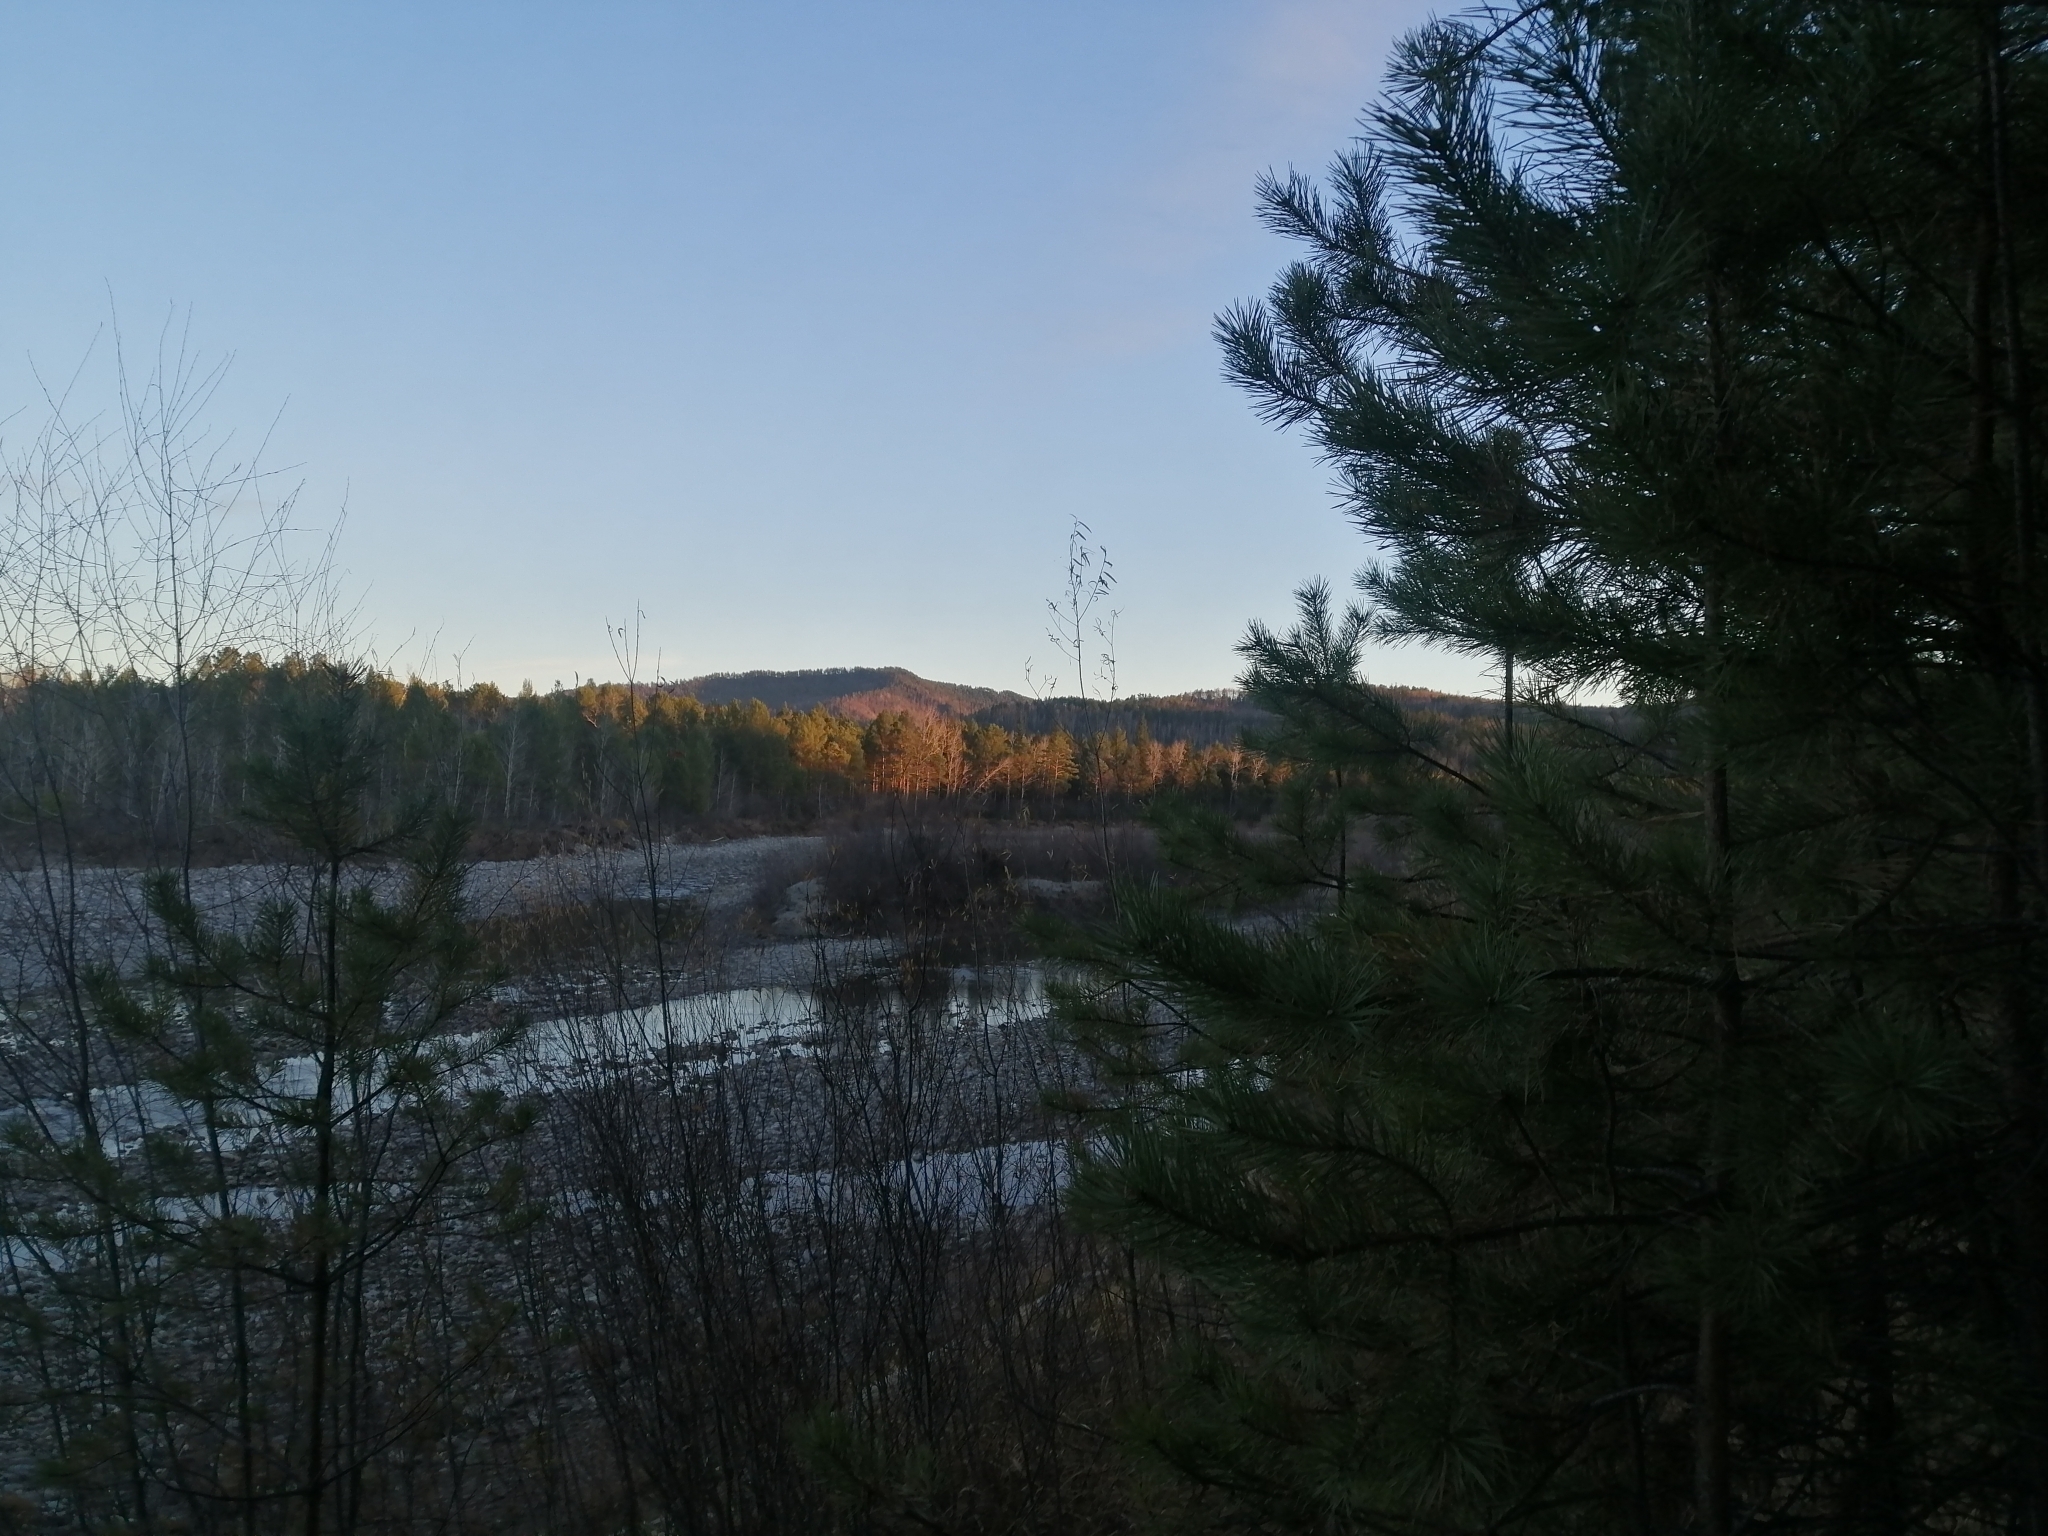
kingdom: Plantae
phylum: Tracheophyta
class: Pinopsida
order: Pinales
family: Pinaceae
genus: Pinus
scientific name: Pinus sylvestris
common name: Scots pine
